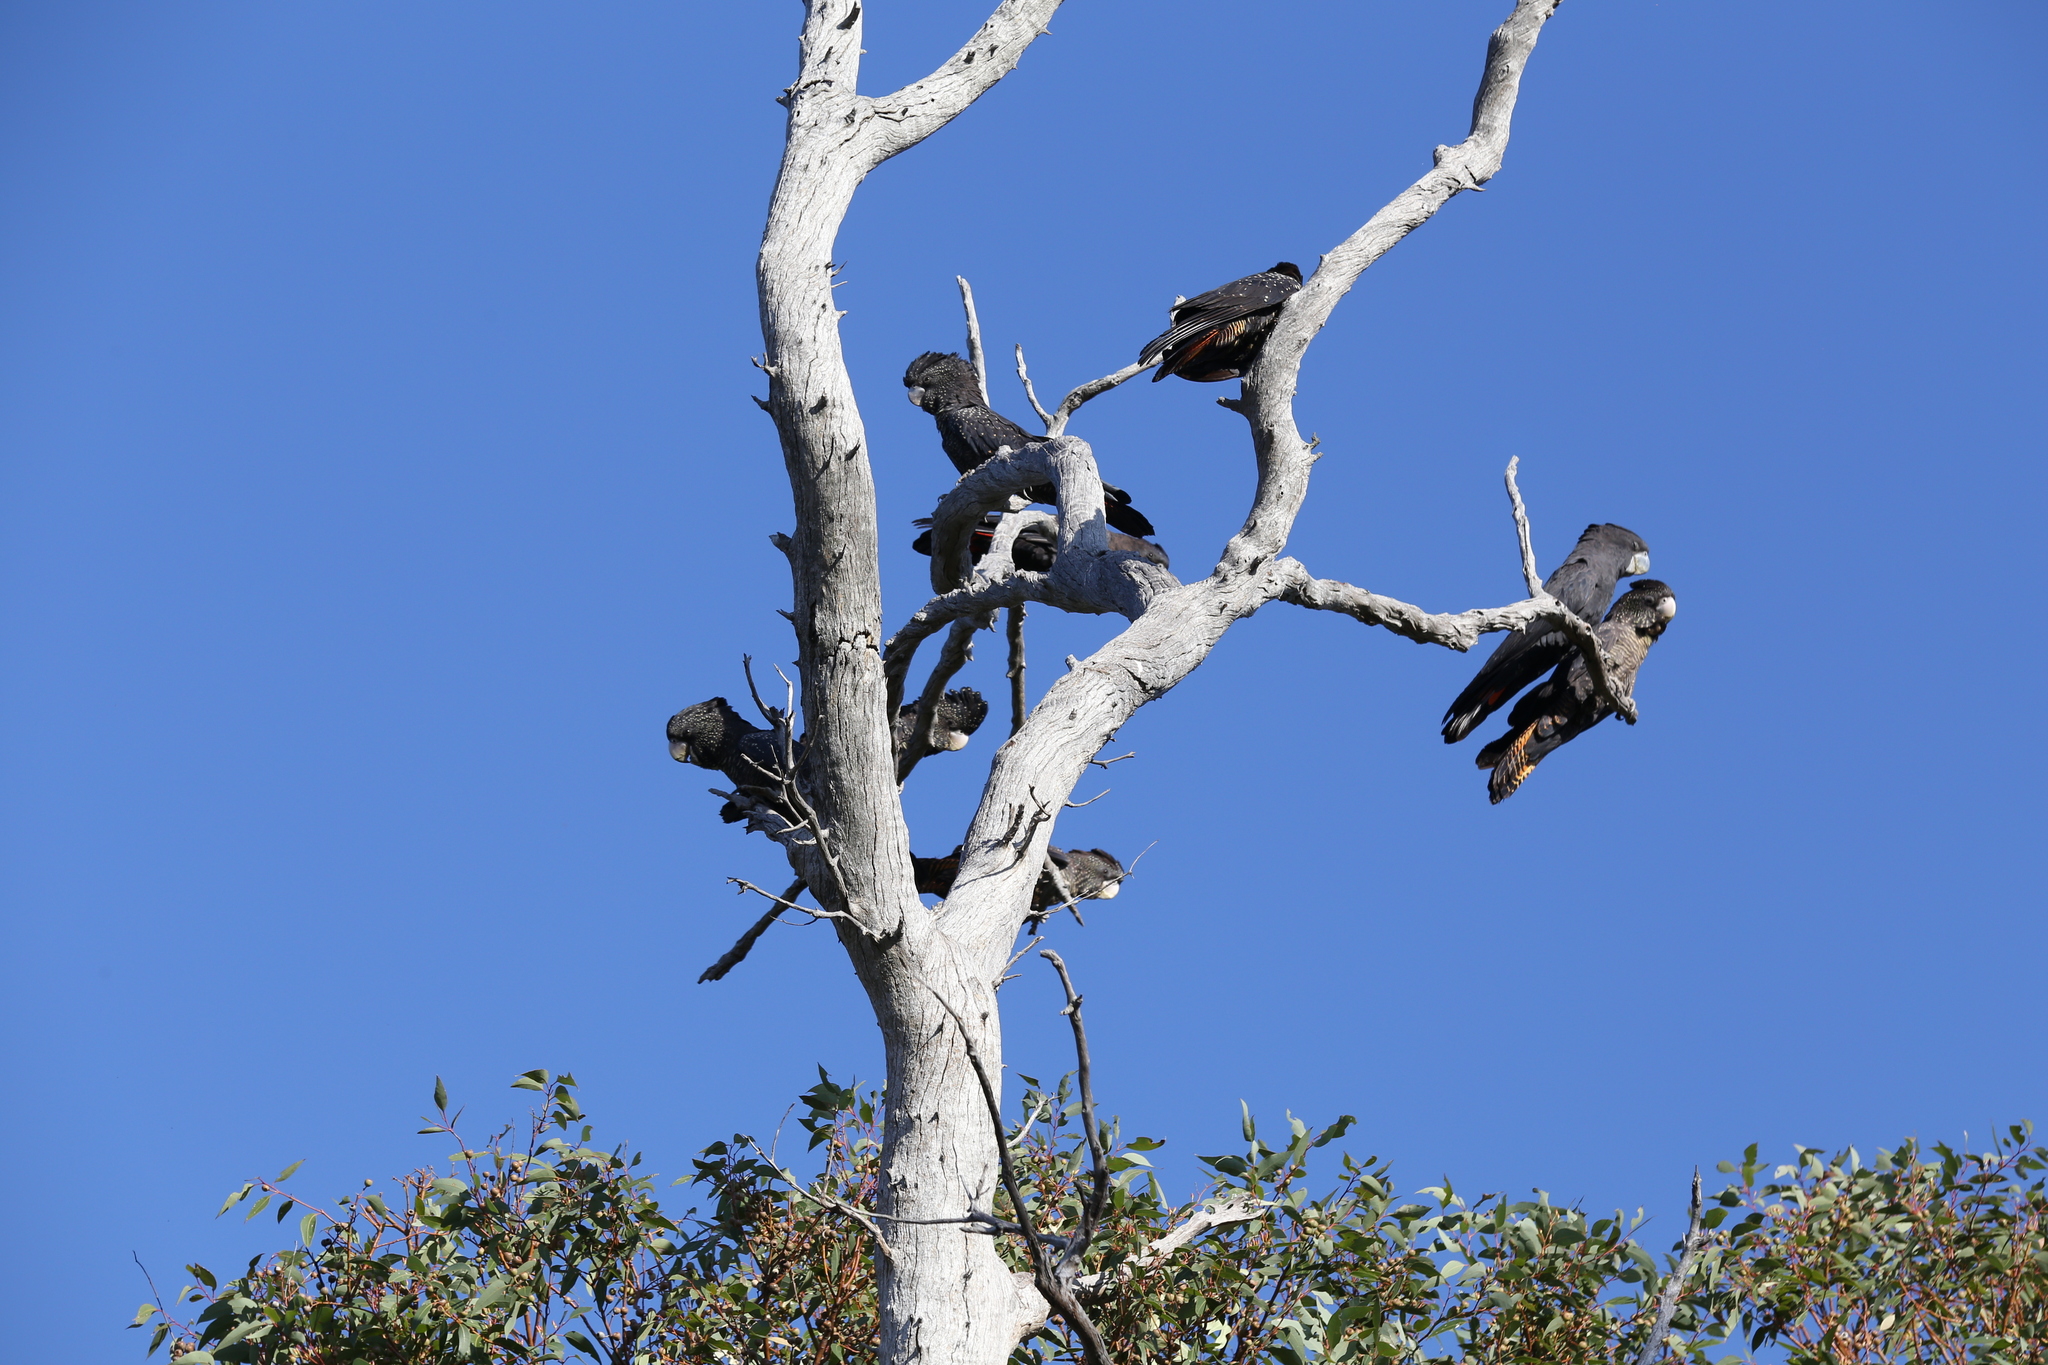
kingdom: Animalia
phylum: Chordata
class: Aves
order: Psittaciformes
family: Psittacidae
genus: Calyptorhynchus
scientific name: Calyptorhynchus banksii
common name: Red-tailed black cockatoo
